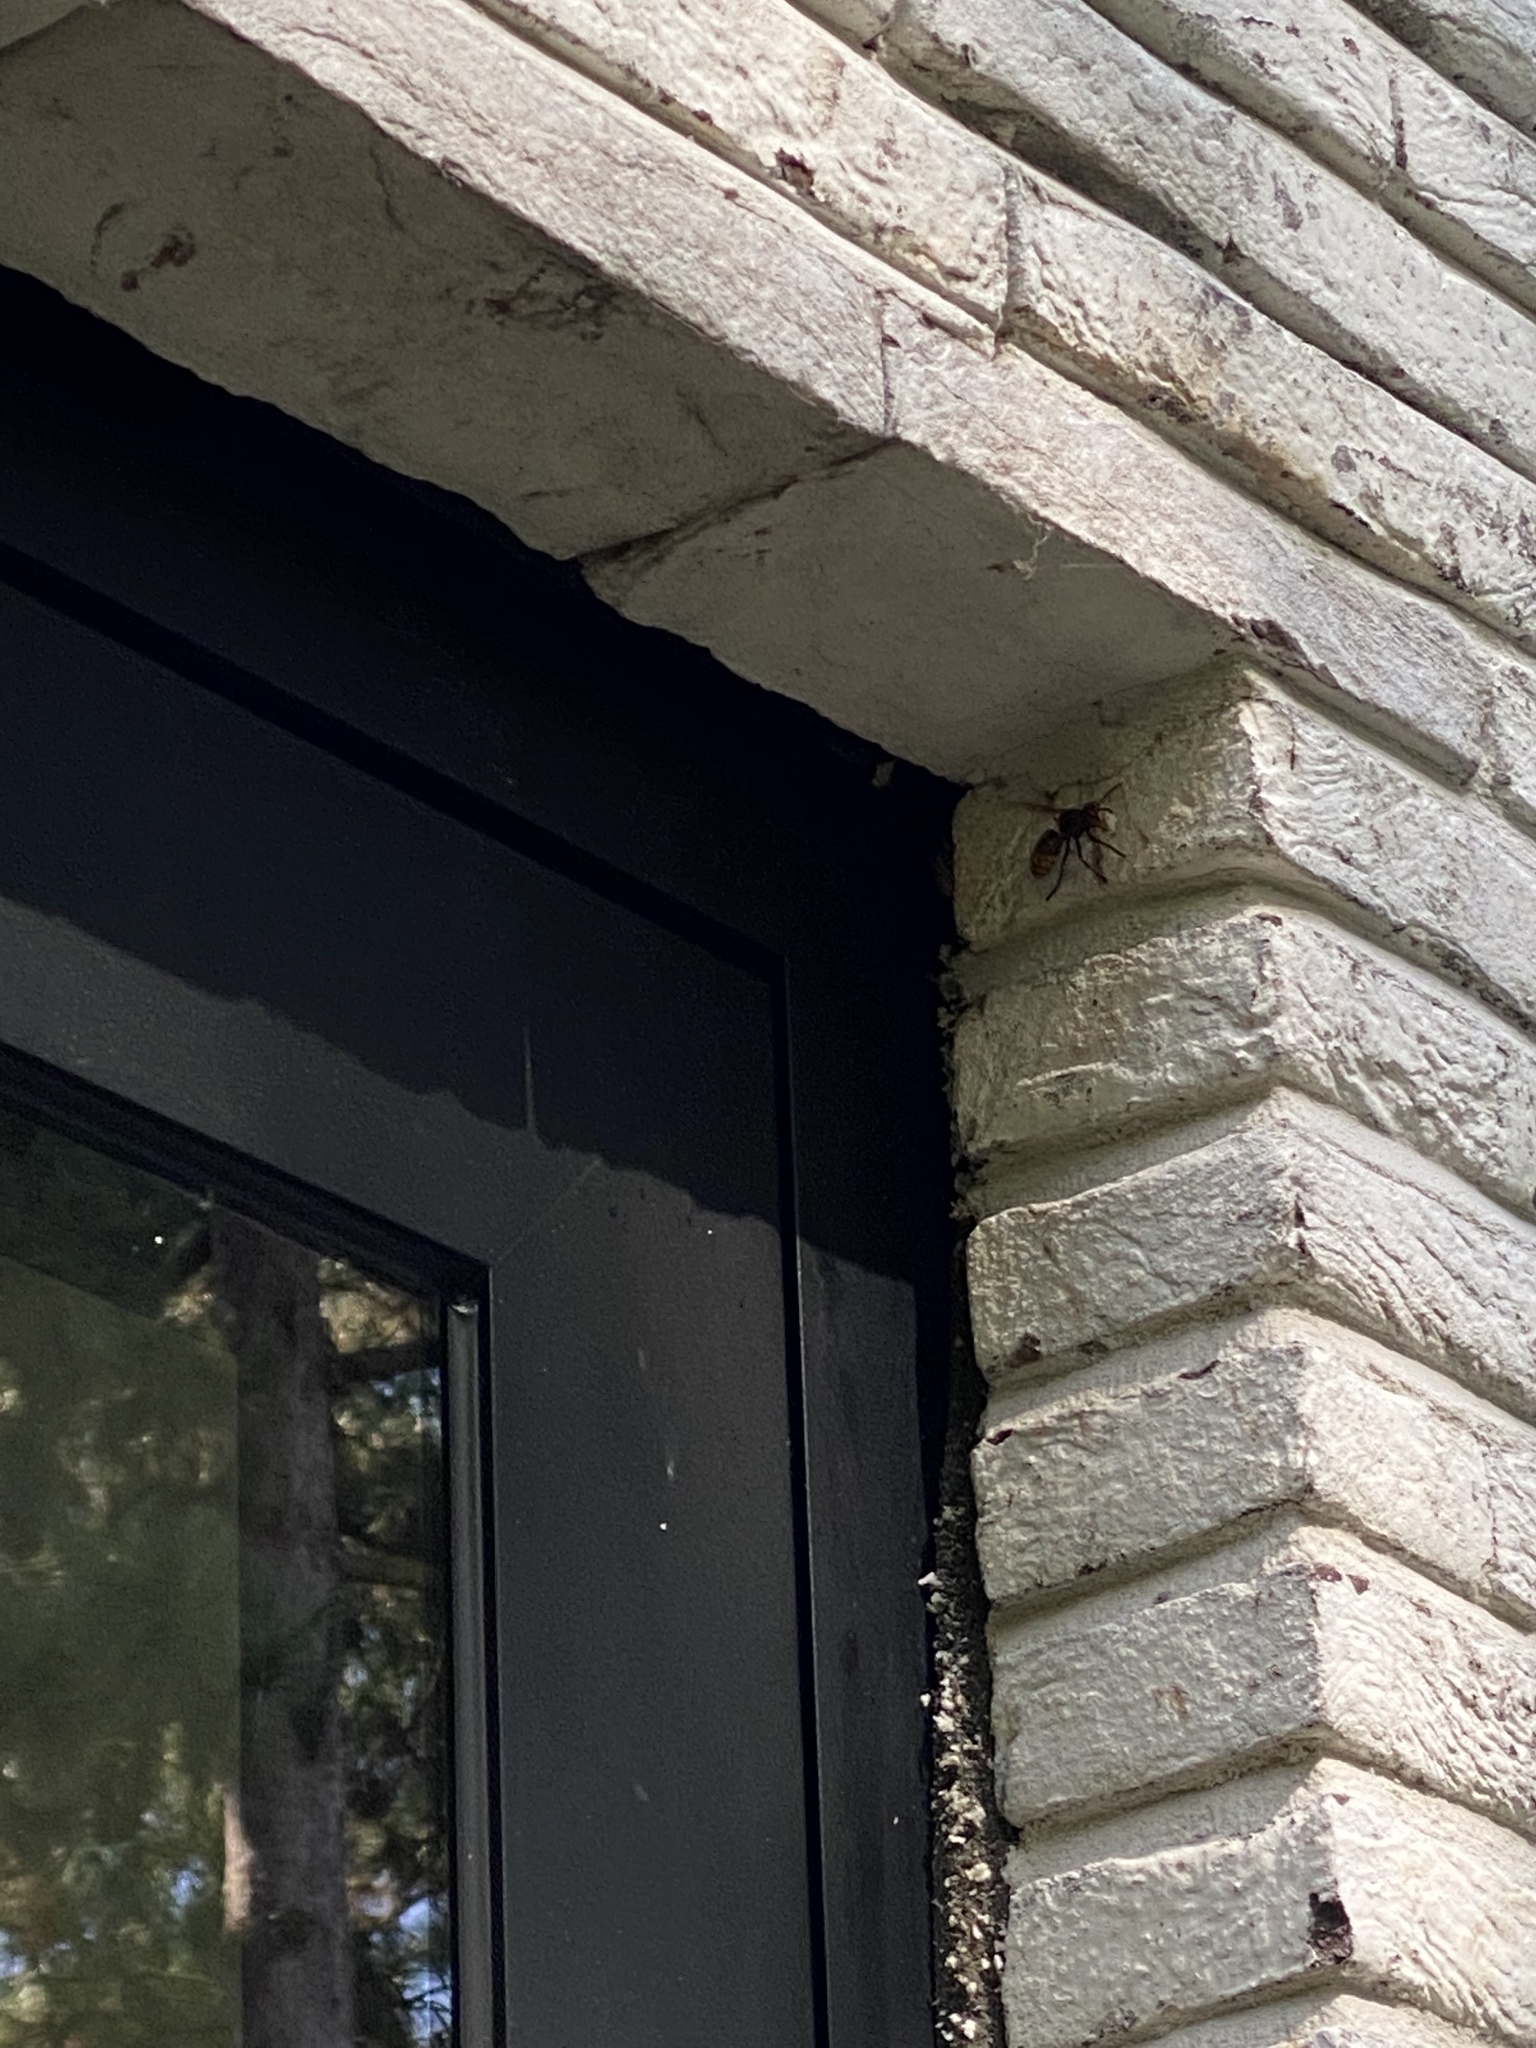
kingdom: Animalia
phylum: Arthropoda
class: Insecta
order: Hymenoptera
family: Vespidae
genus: Vespa
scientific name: Vespa crabro
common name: Hornet
